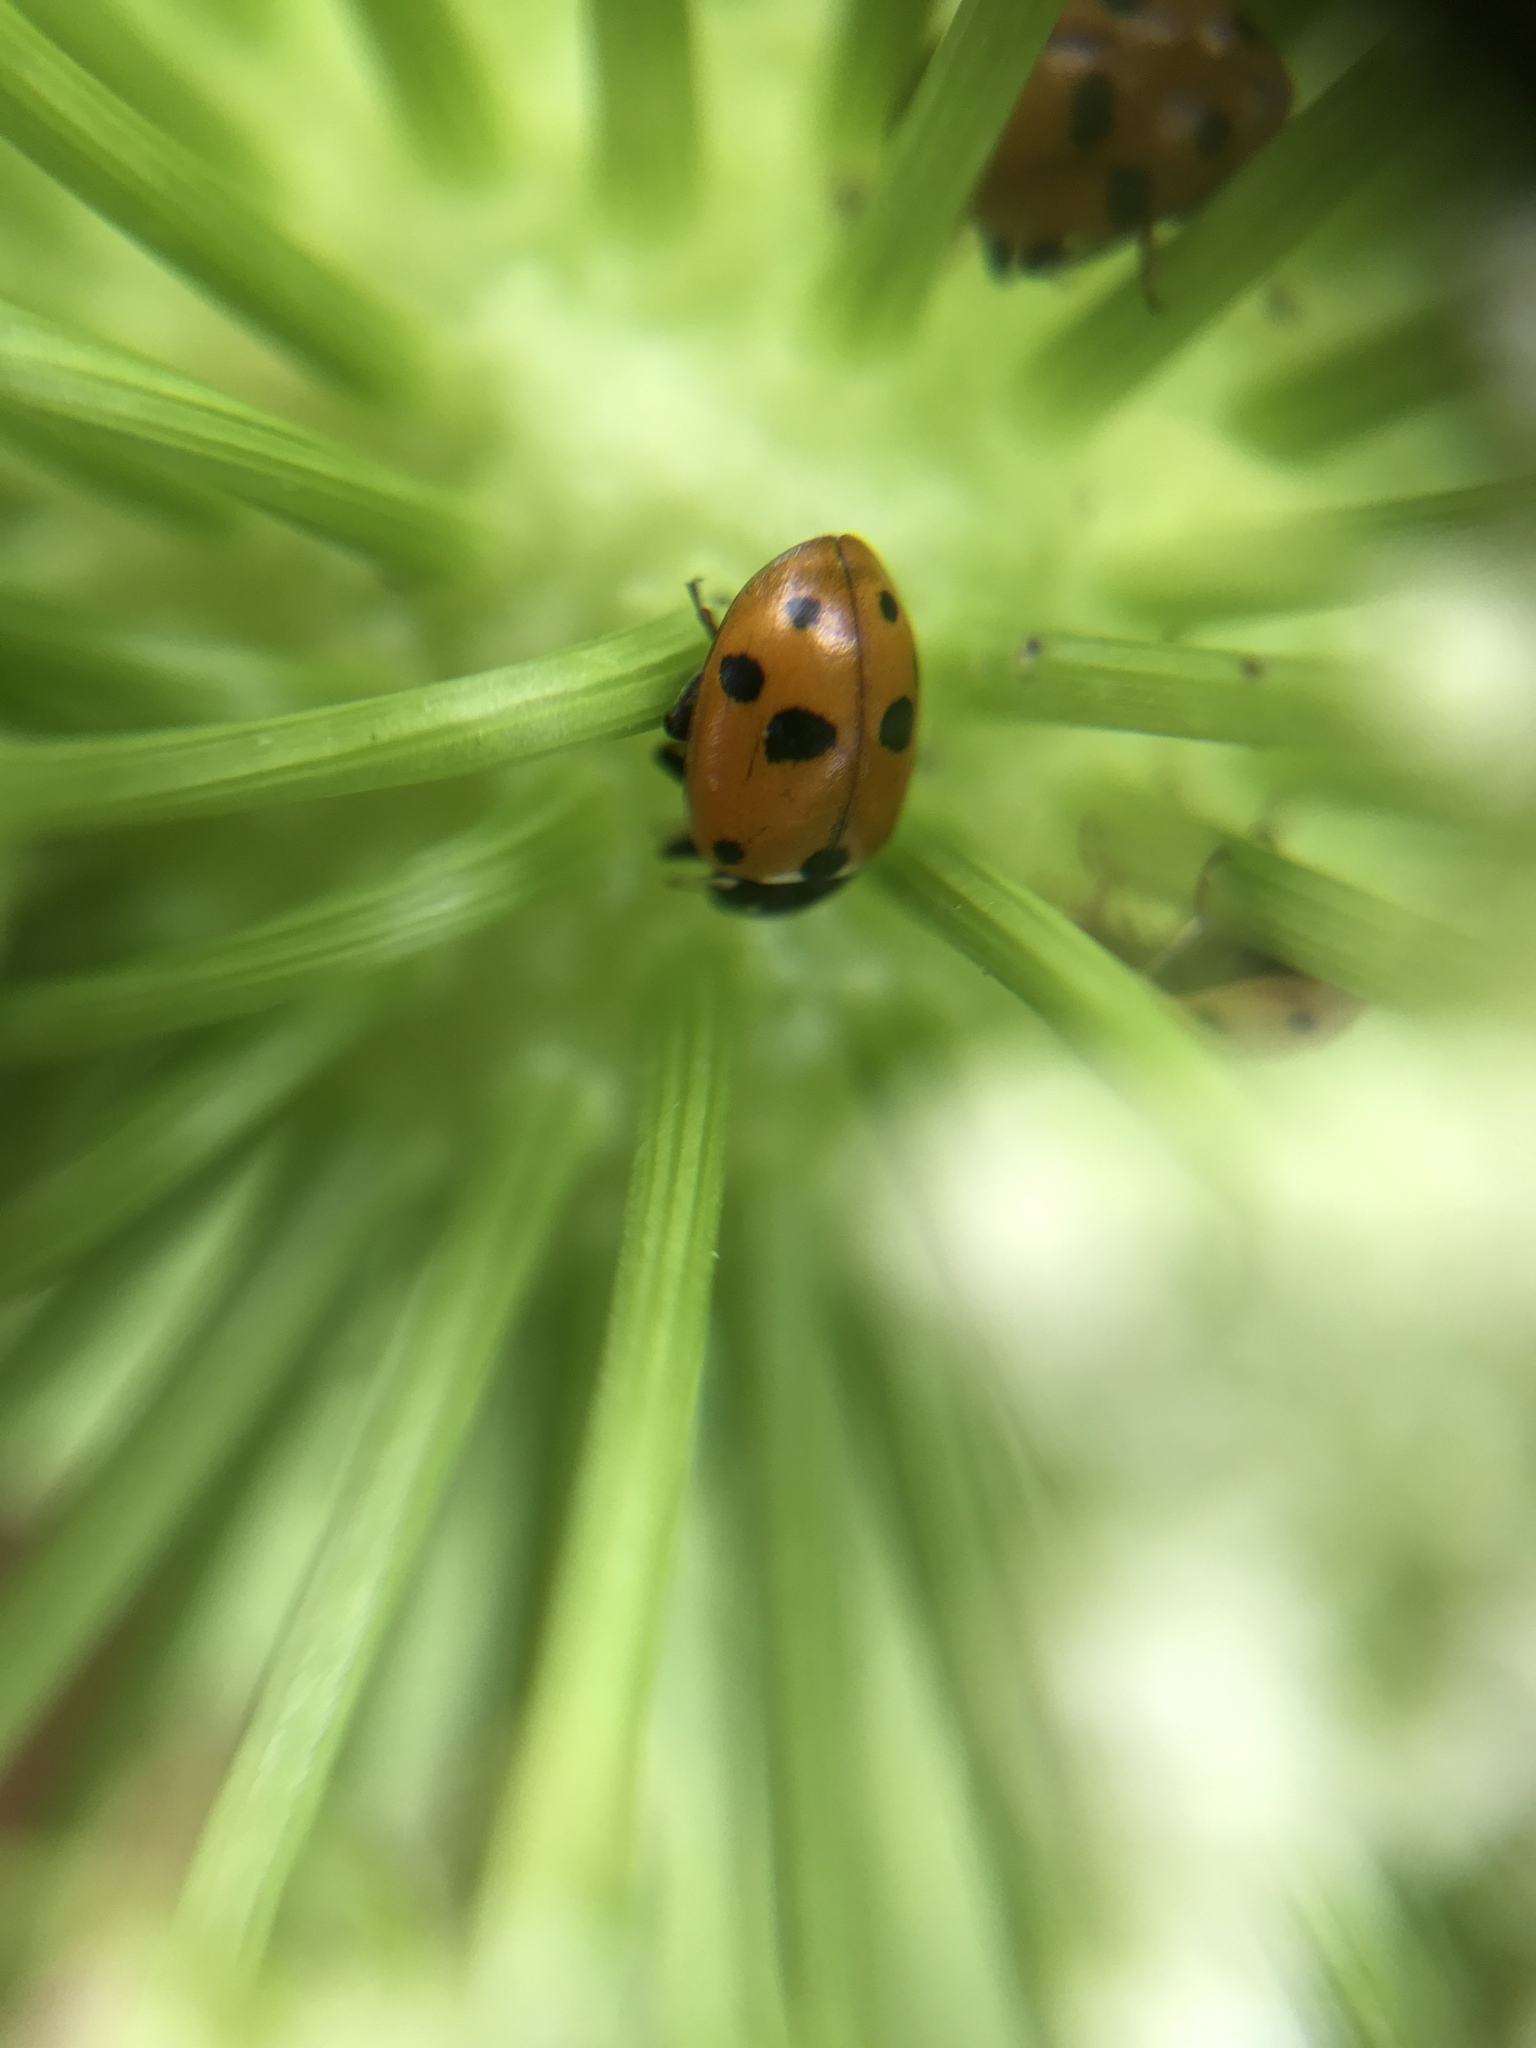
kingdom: Animalia
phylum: Arthropoda
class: Insecta
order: Coleoptera
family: Coccinellidae
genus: Hippodamia
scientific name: Hippodamia variegata
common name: Ladybird beetle
